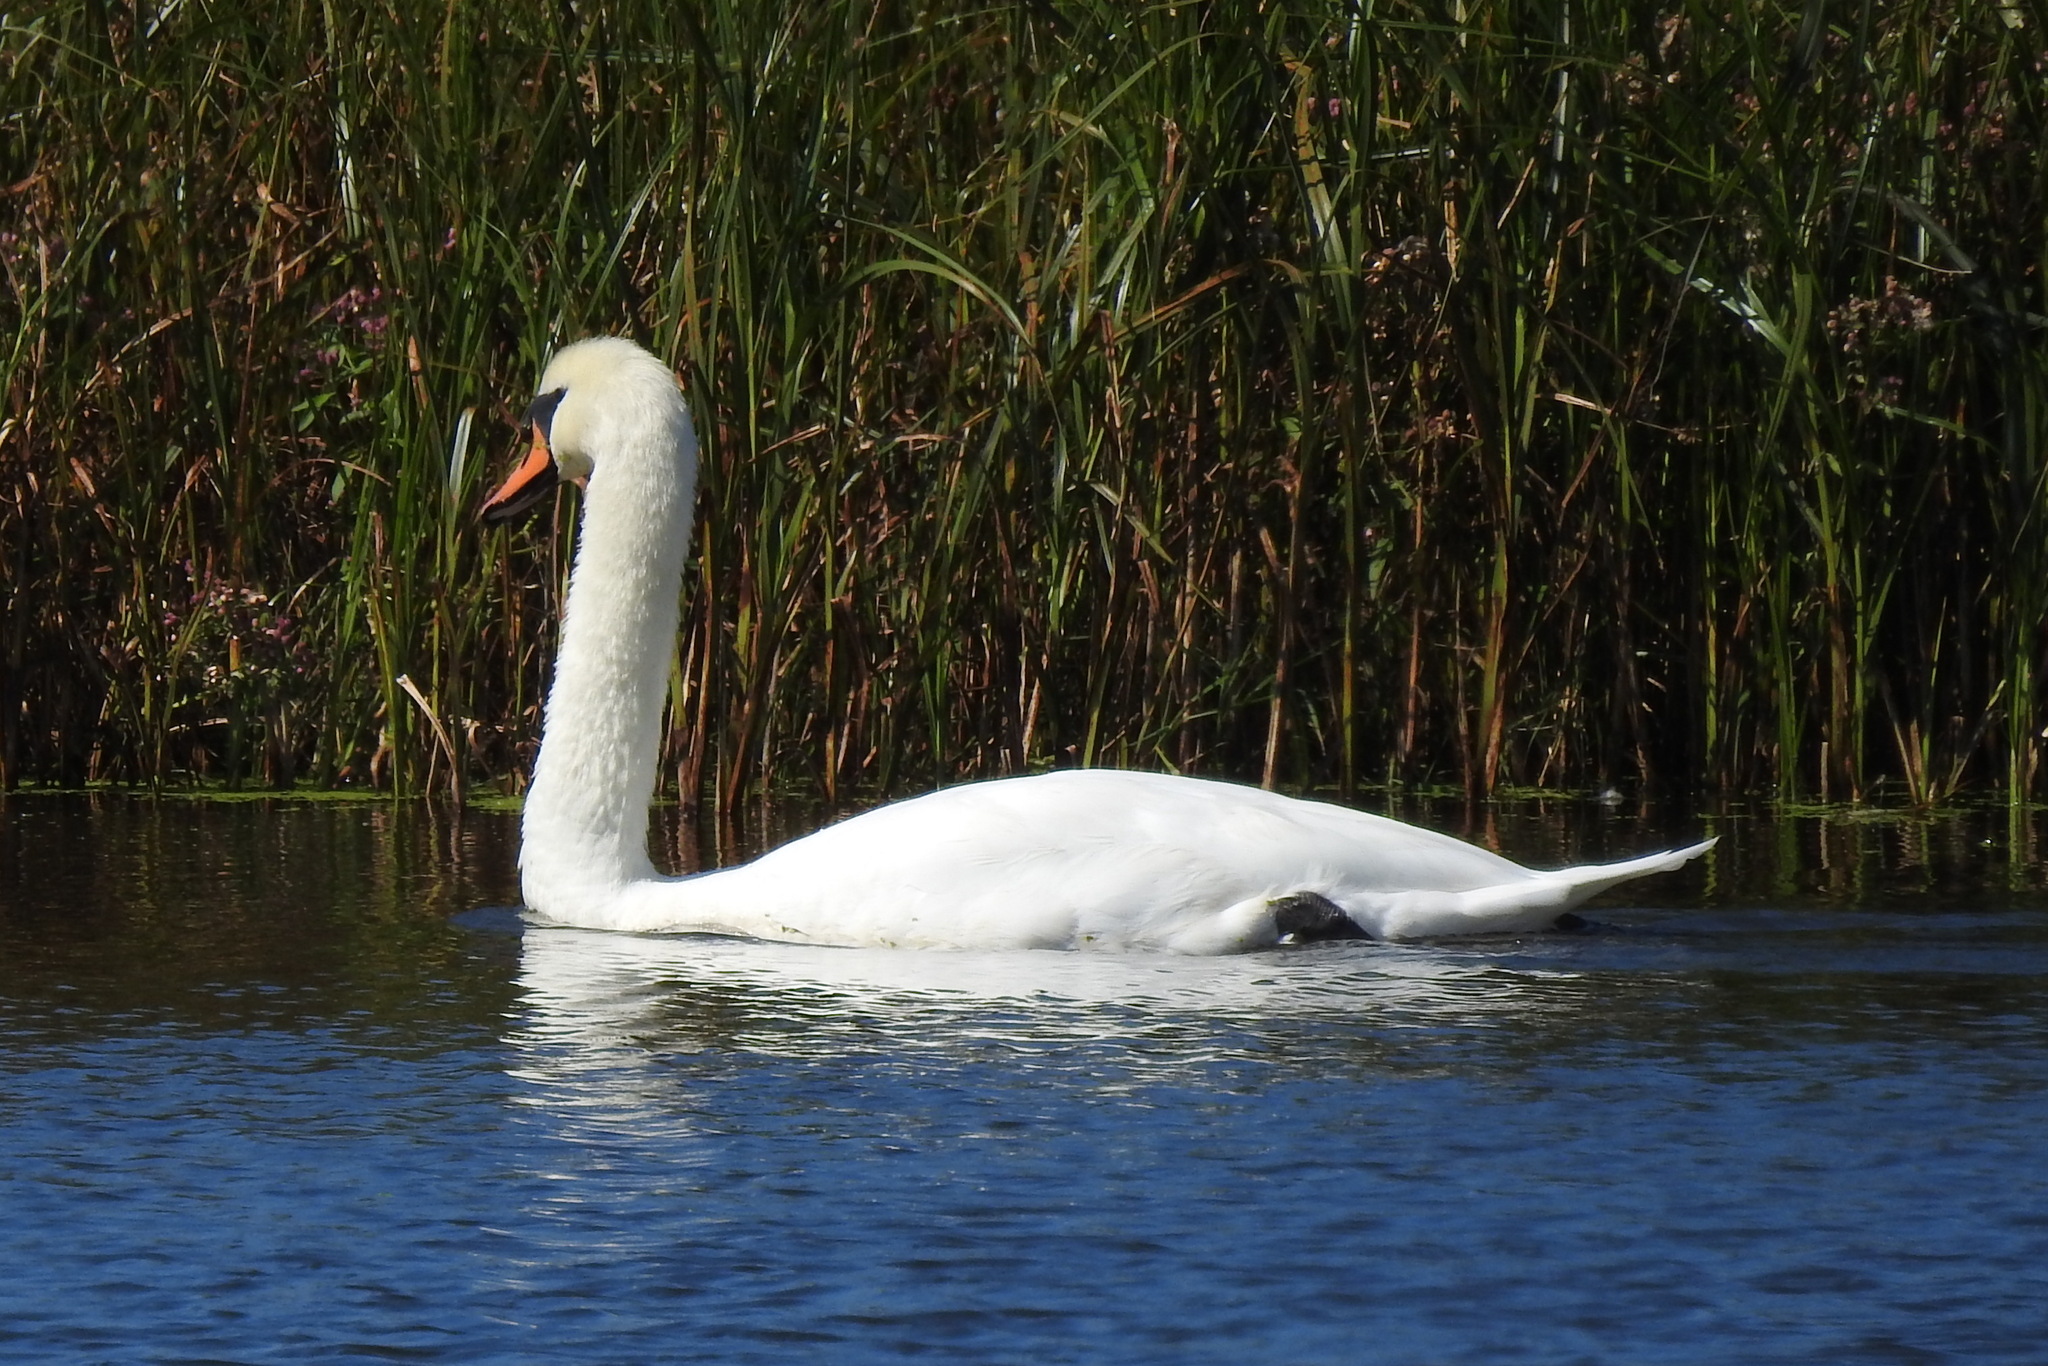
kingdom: Animalia
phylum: Chordata
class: Aves
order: Anseriformes
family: Anatidae
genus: Cygnus
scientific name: Cygnus olor
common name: Mute swan
